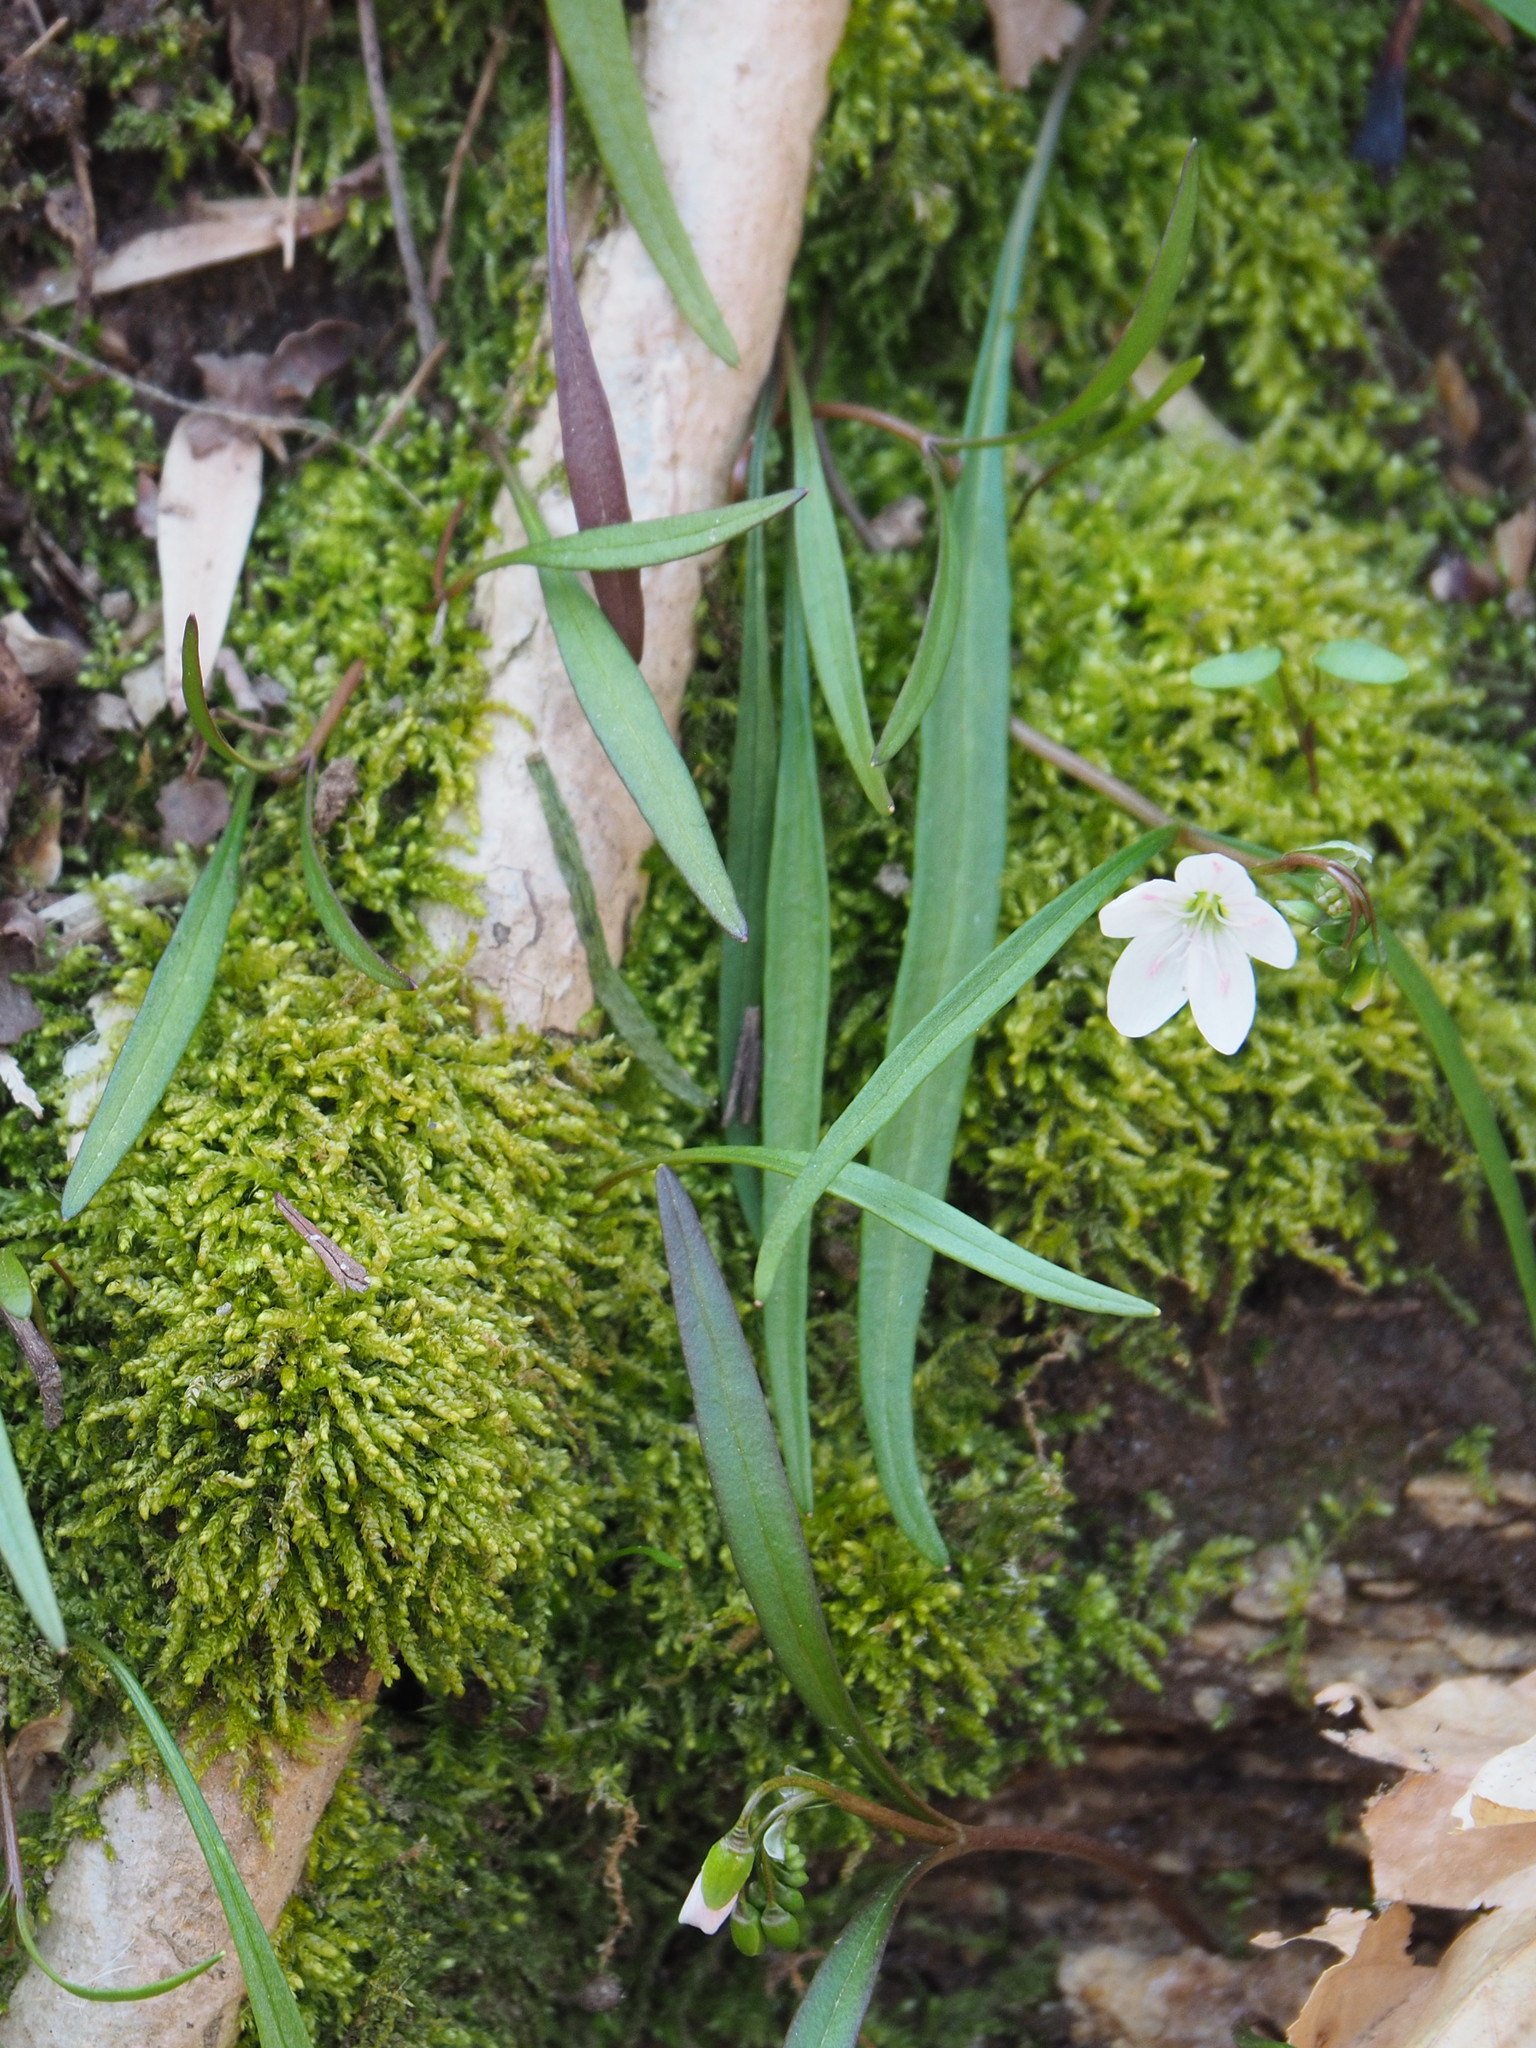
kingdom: Plantae
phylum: Tracheophyta
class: Magnoliopsida
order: Caryophyllales
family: Montiaceae
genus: Claytonia
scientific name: Claytonia virginica
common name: Virginia springbeauty
